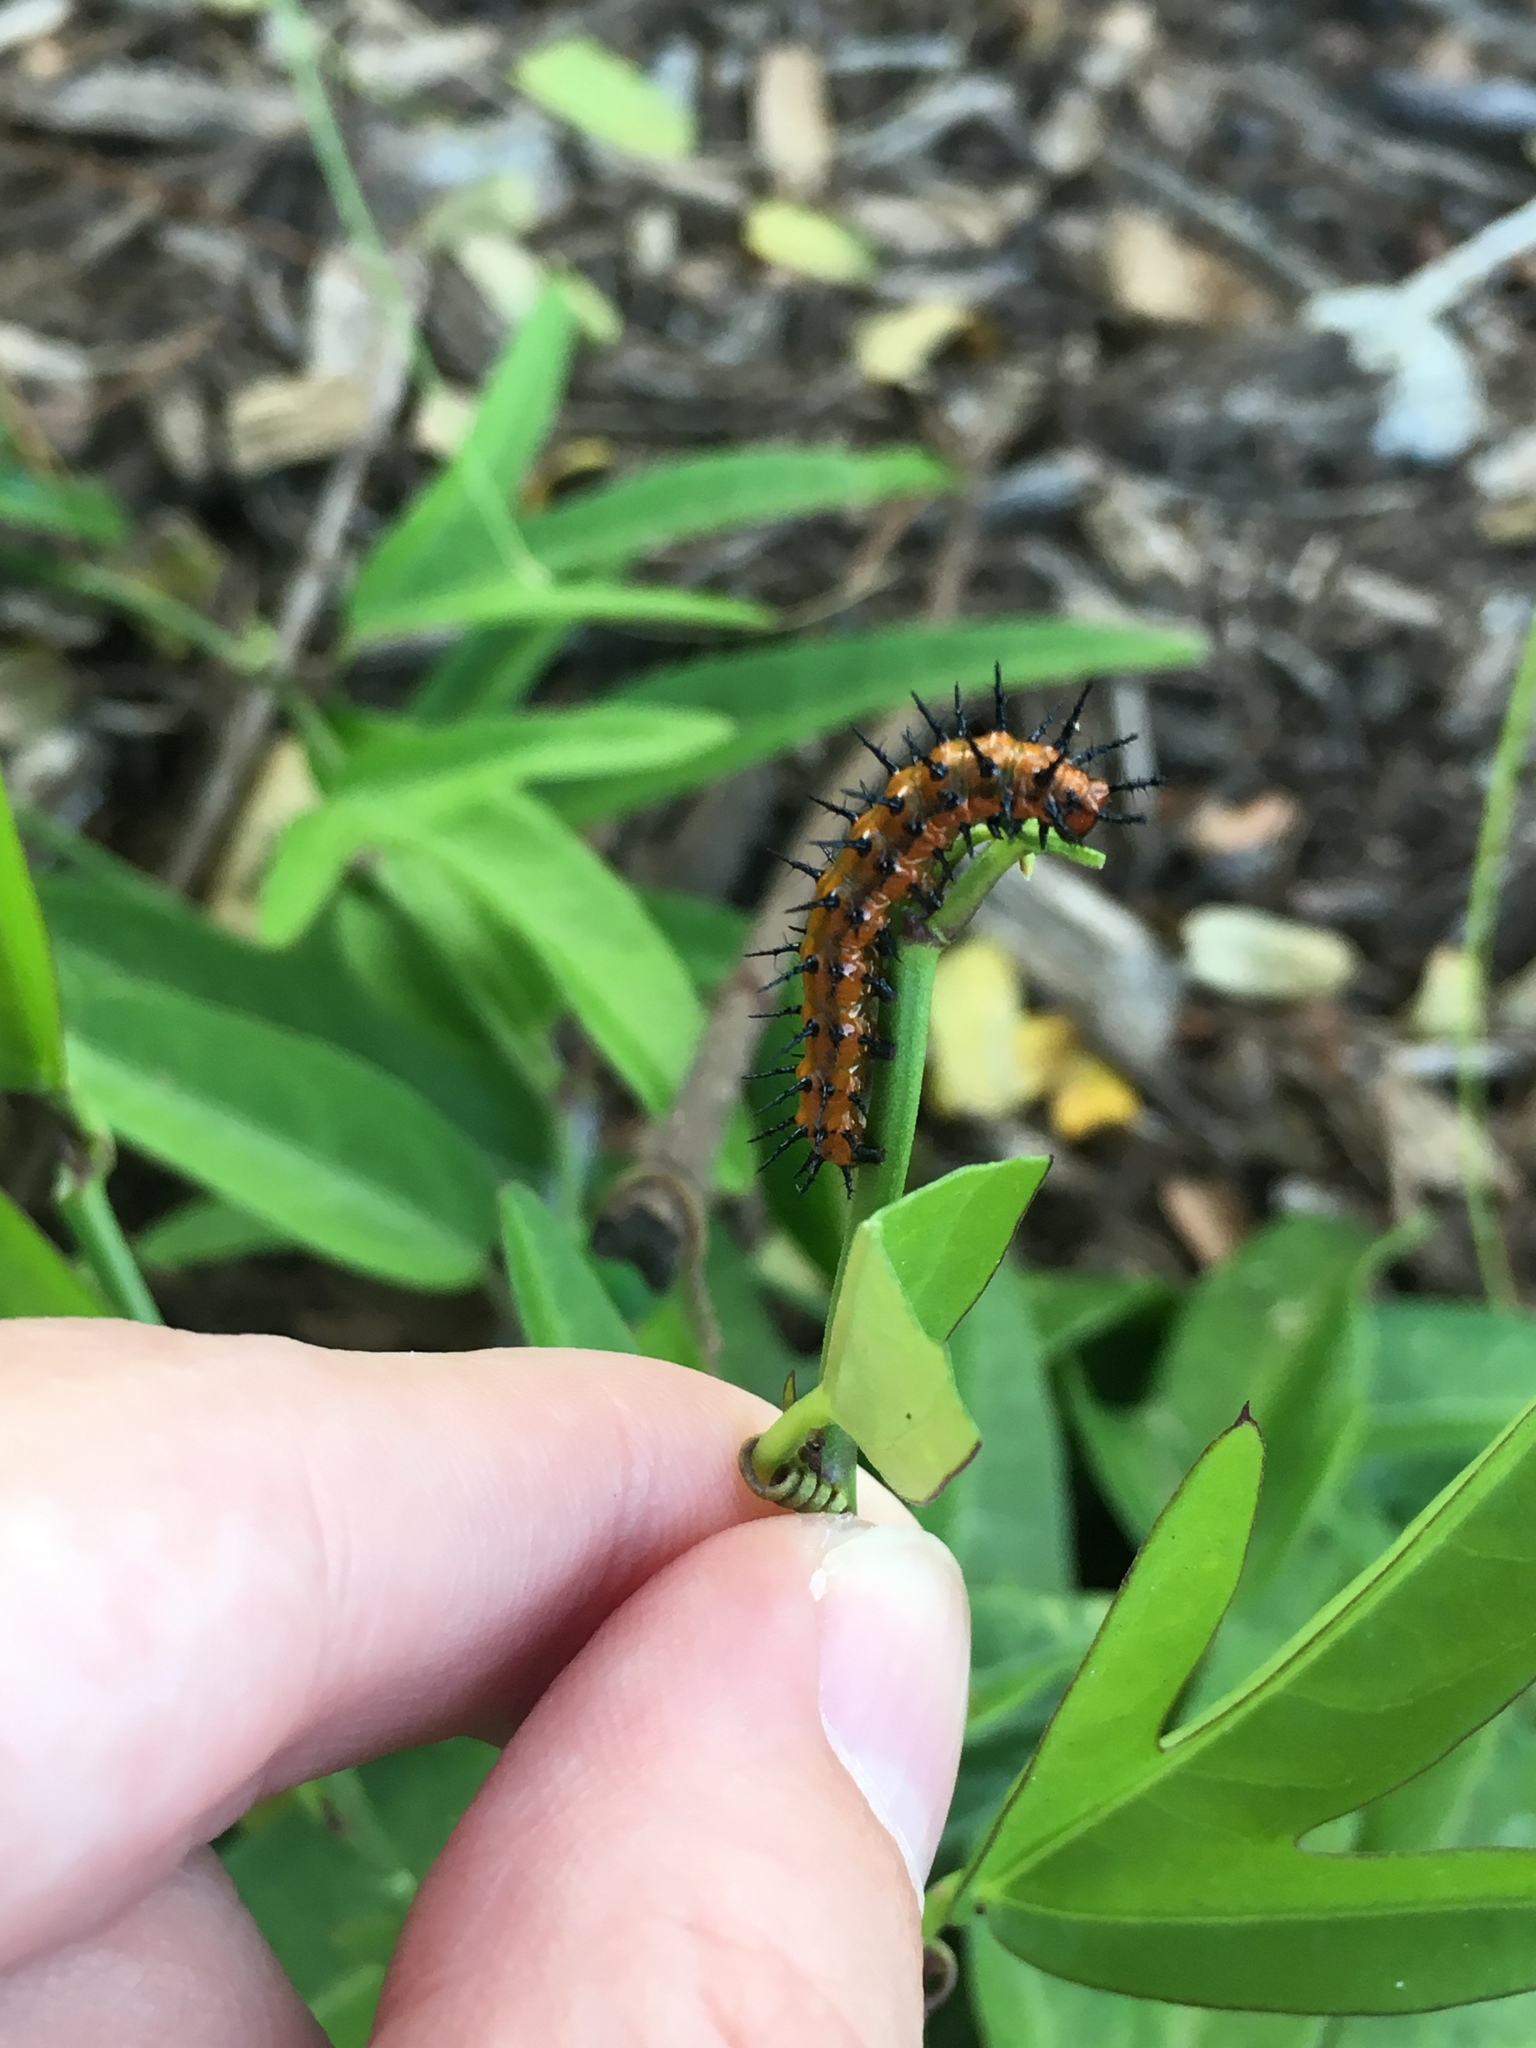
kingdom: Animalia
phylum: Arthropoda
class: Insecta
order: Lepidoptera
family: Nymphalidae
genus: Dione
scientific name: Dione vanillae
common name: Gulf fritillary
